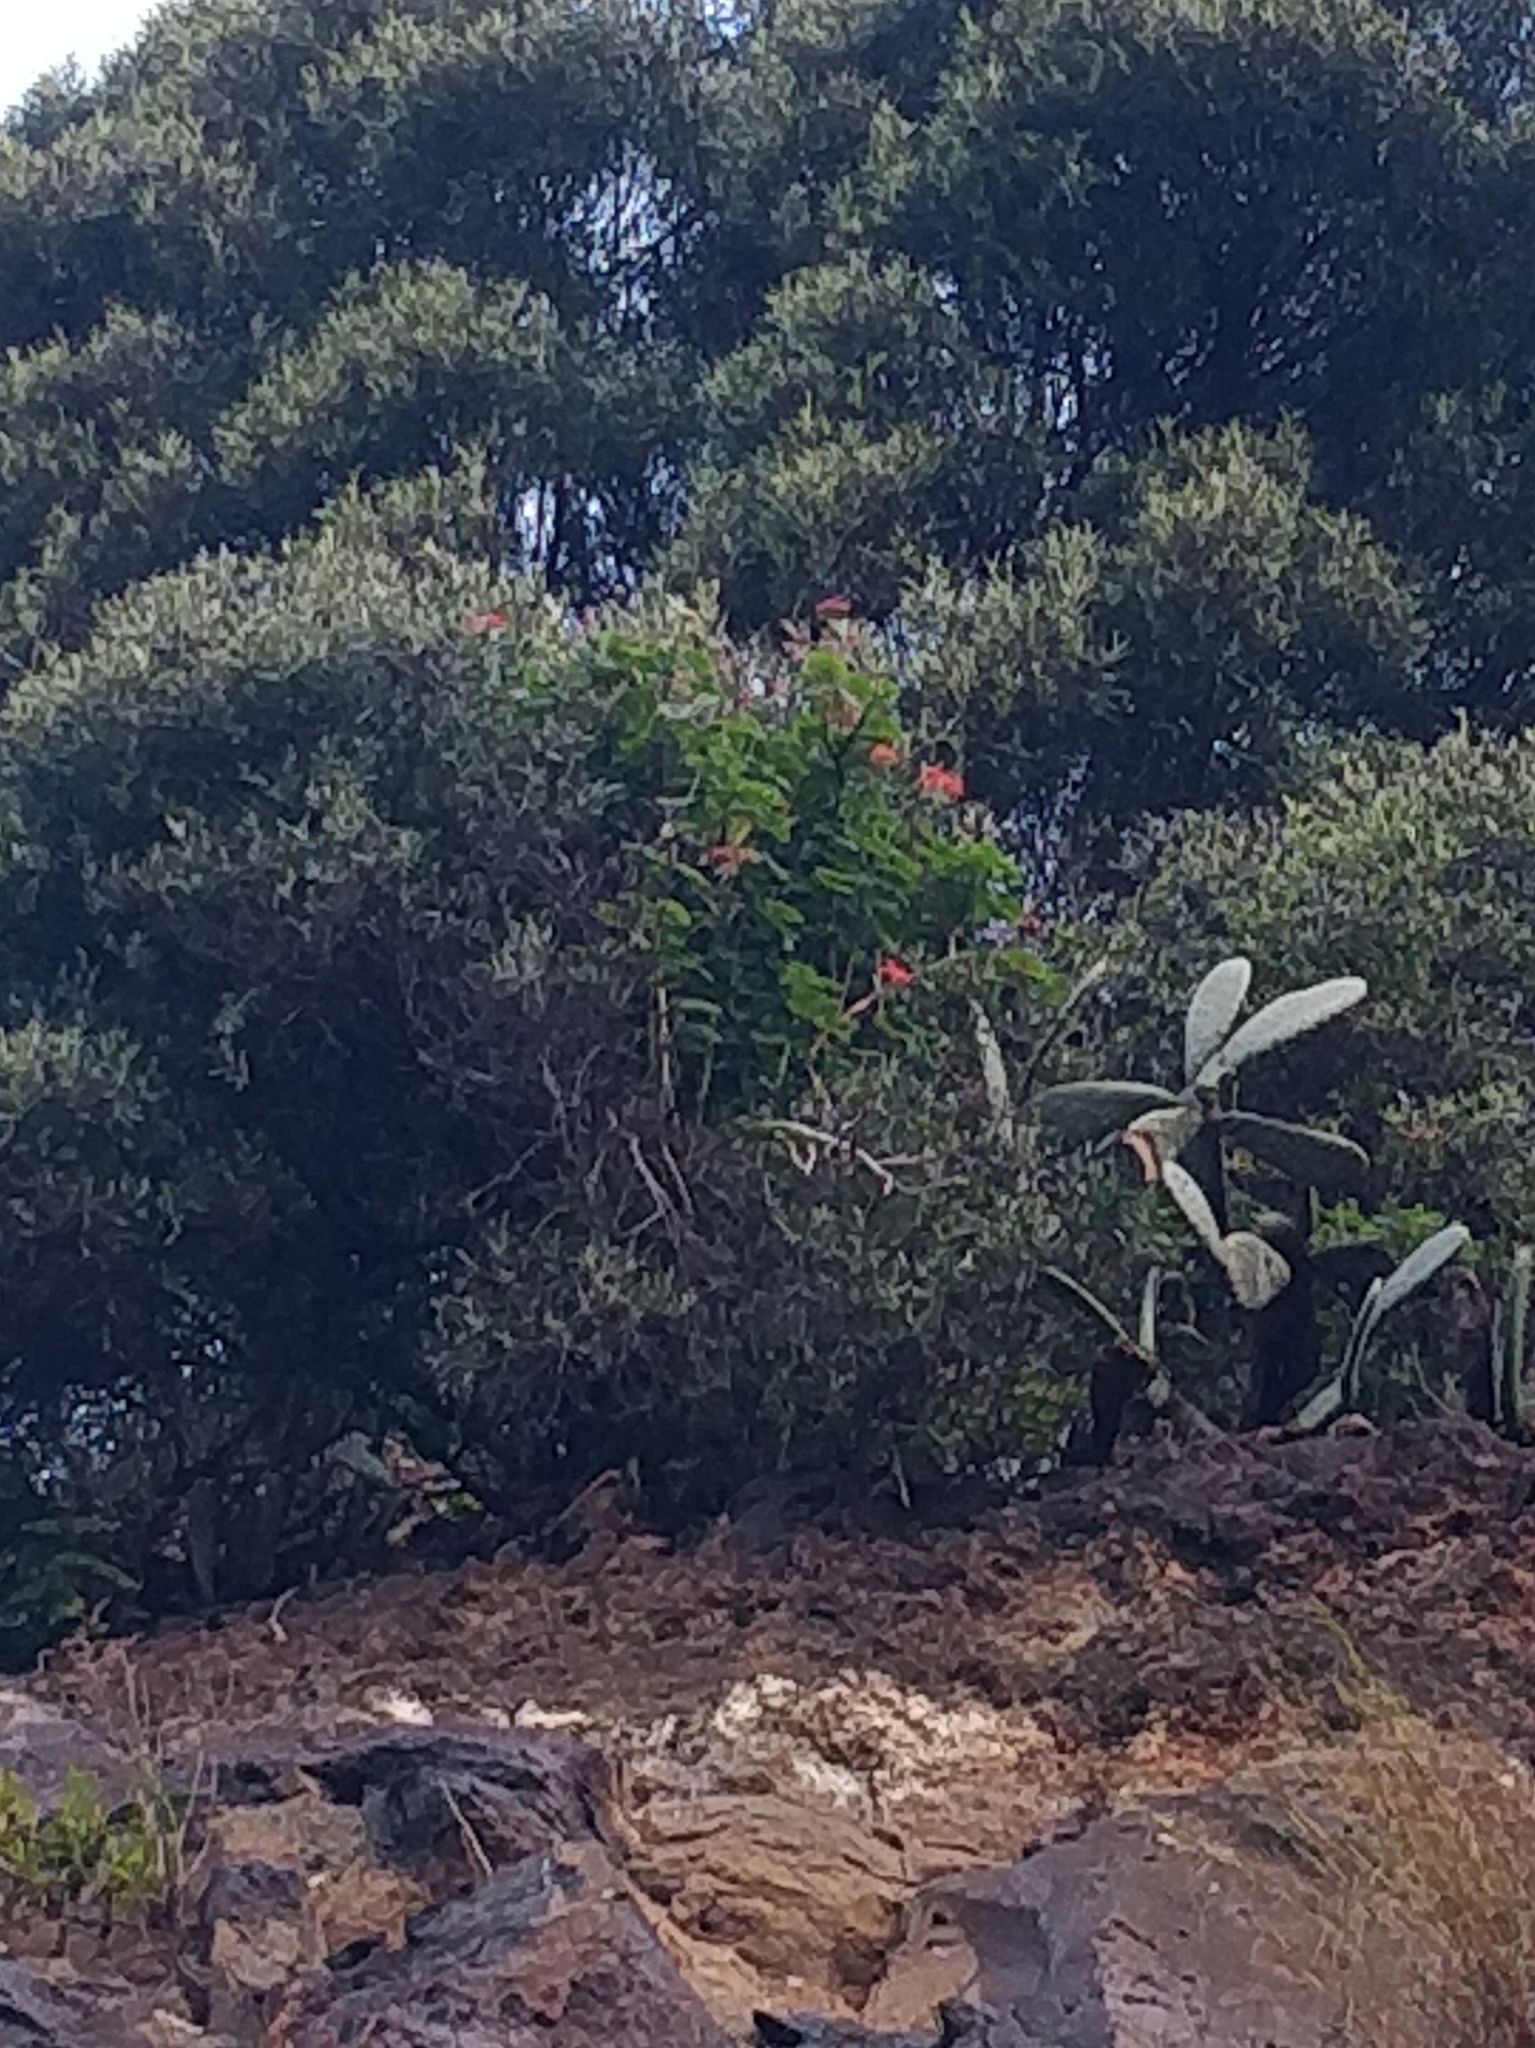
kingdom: Plantae
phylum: Tracheophyta
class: Magnoliopsida
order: Geraniales
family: Geraniaceae
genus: Pelargonium
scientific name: Pelargonium hybridum
